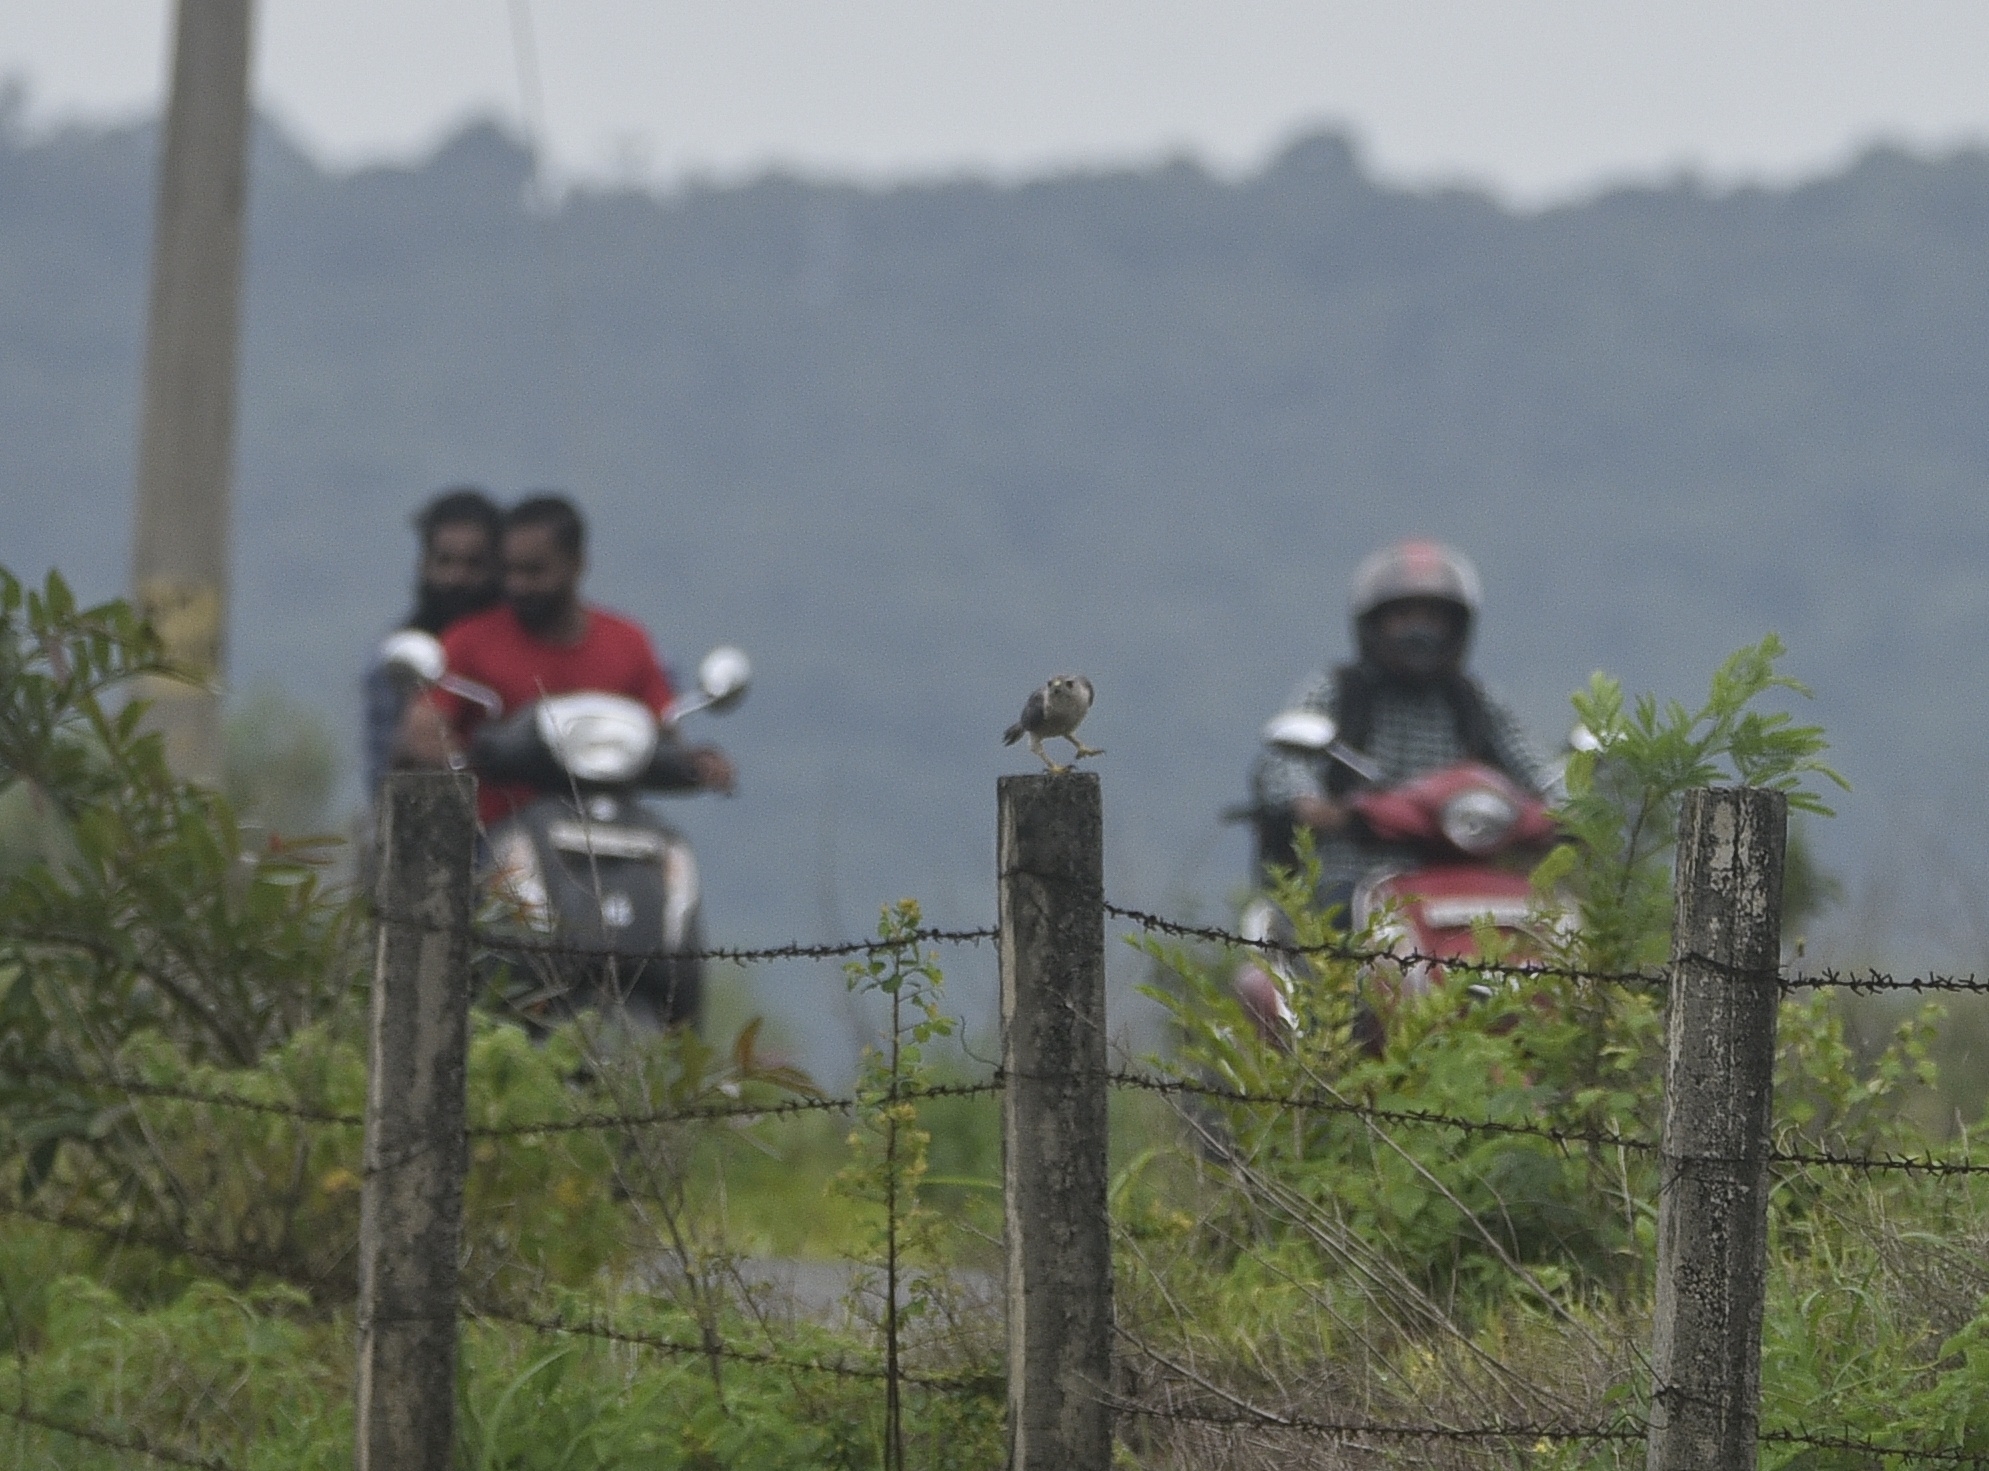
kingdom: Animalia
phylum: Chordata
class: Aves
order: Accipitriformes
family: Accipitridae
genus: Accipiter
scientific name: Accipiter badius
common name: Shikra
